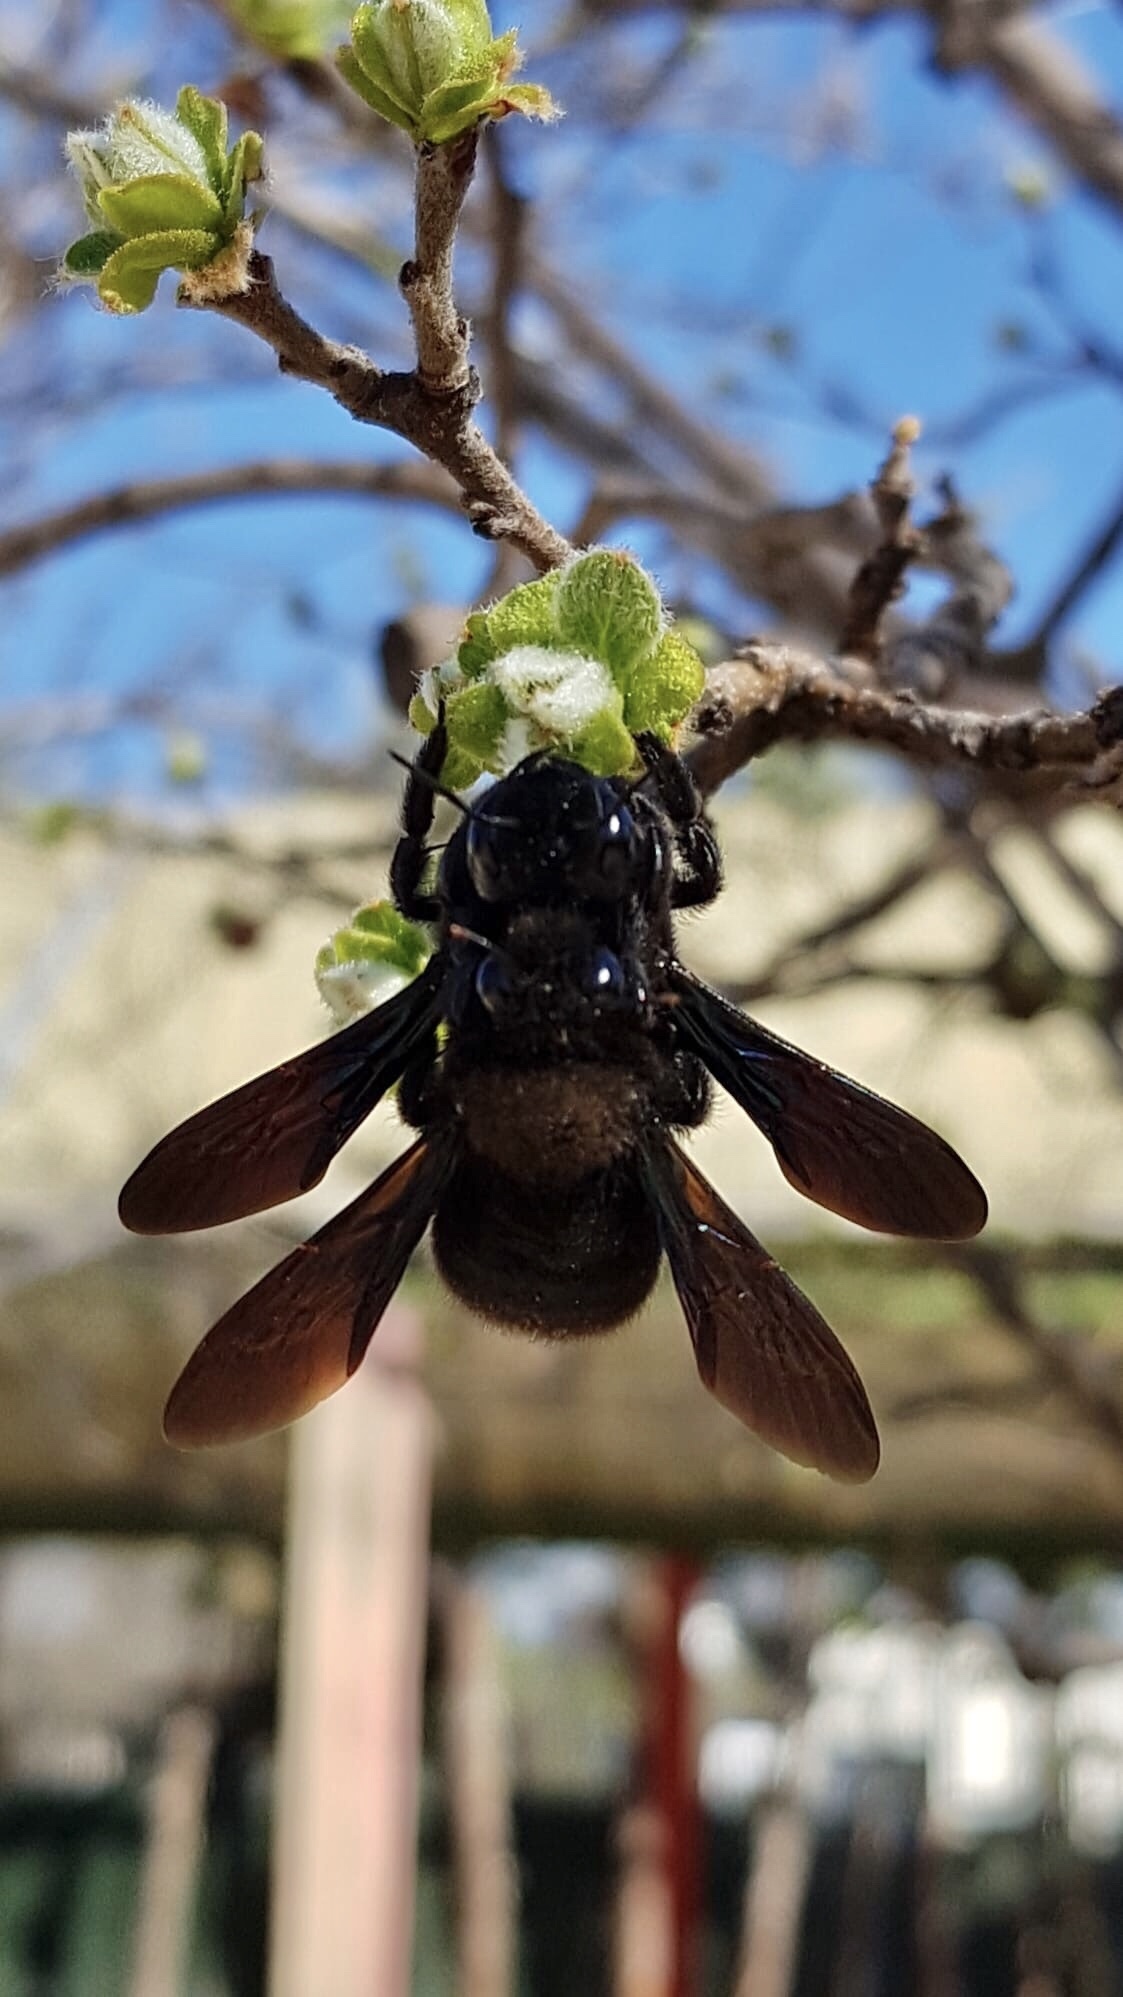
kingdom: Animalia
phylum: Arthropoda
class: Insecta
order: Hymenoptera
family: Apidae
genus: Xylocopa
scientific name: Xylocopa violacea
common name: Violet carpenter bee
